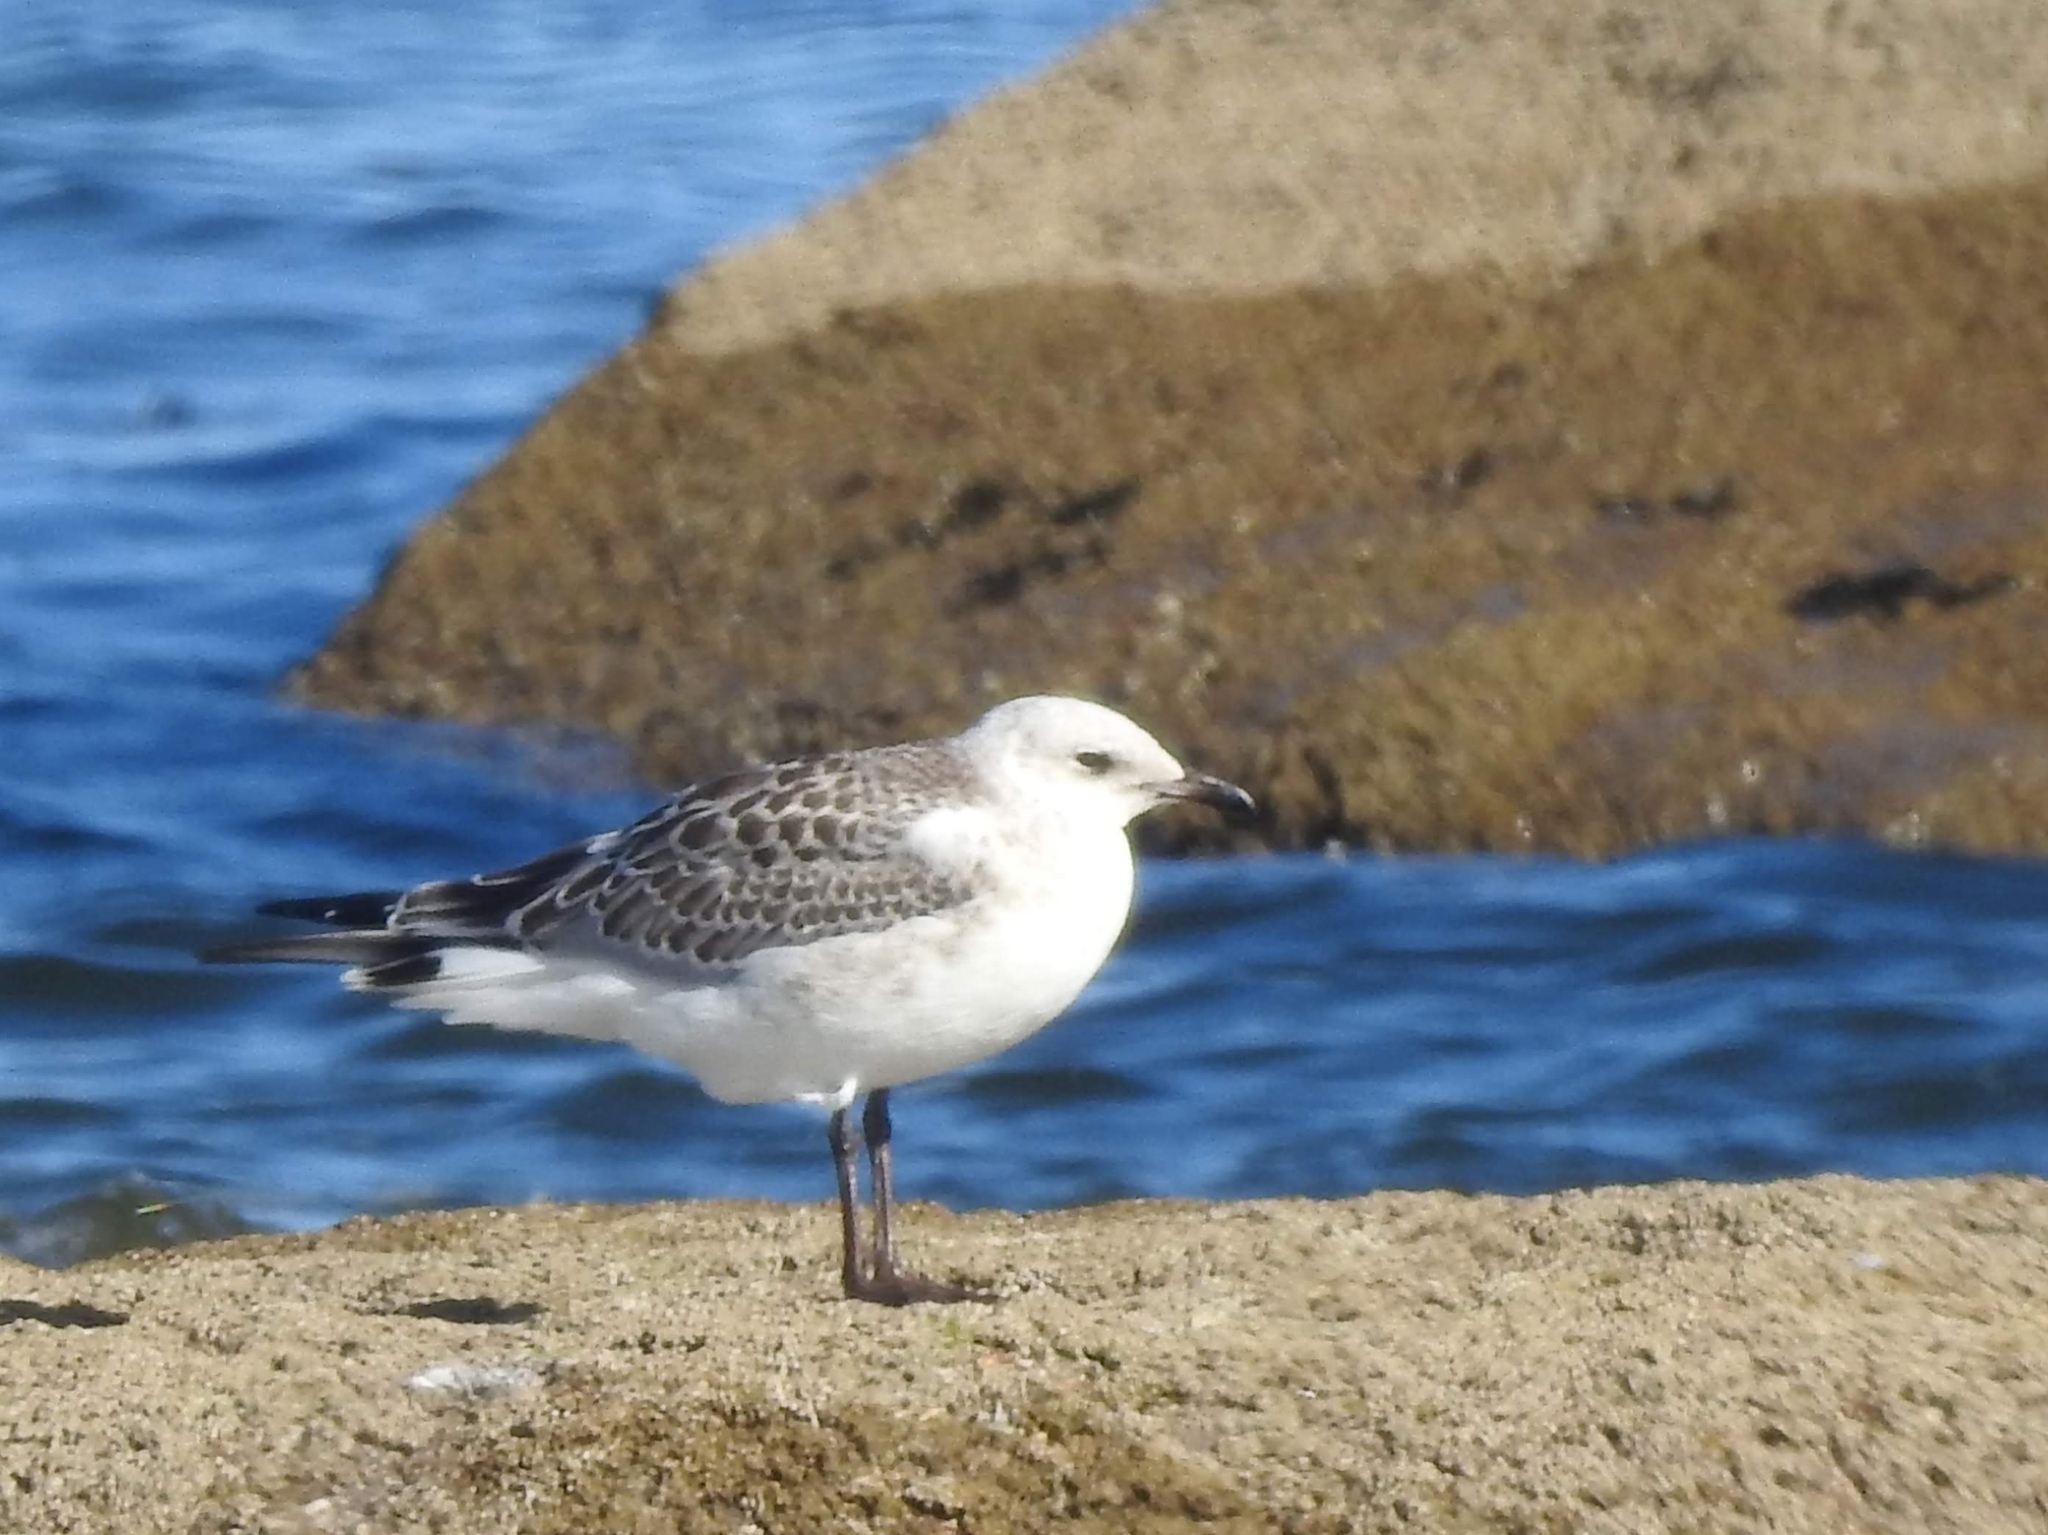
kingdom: Animalia
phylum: Chordata
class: Aves
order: Charadriiformes
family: Laridae
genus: Ichthyaetus
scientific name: Ichthyaetus melanocephalus
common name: Mediterranean gull
